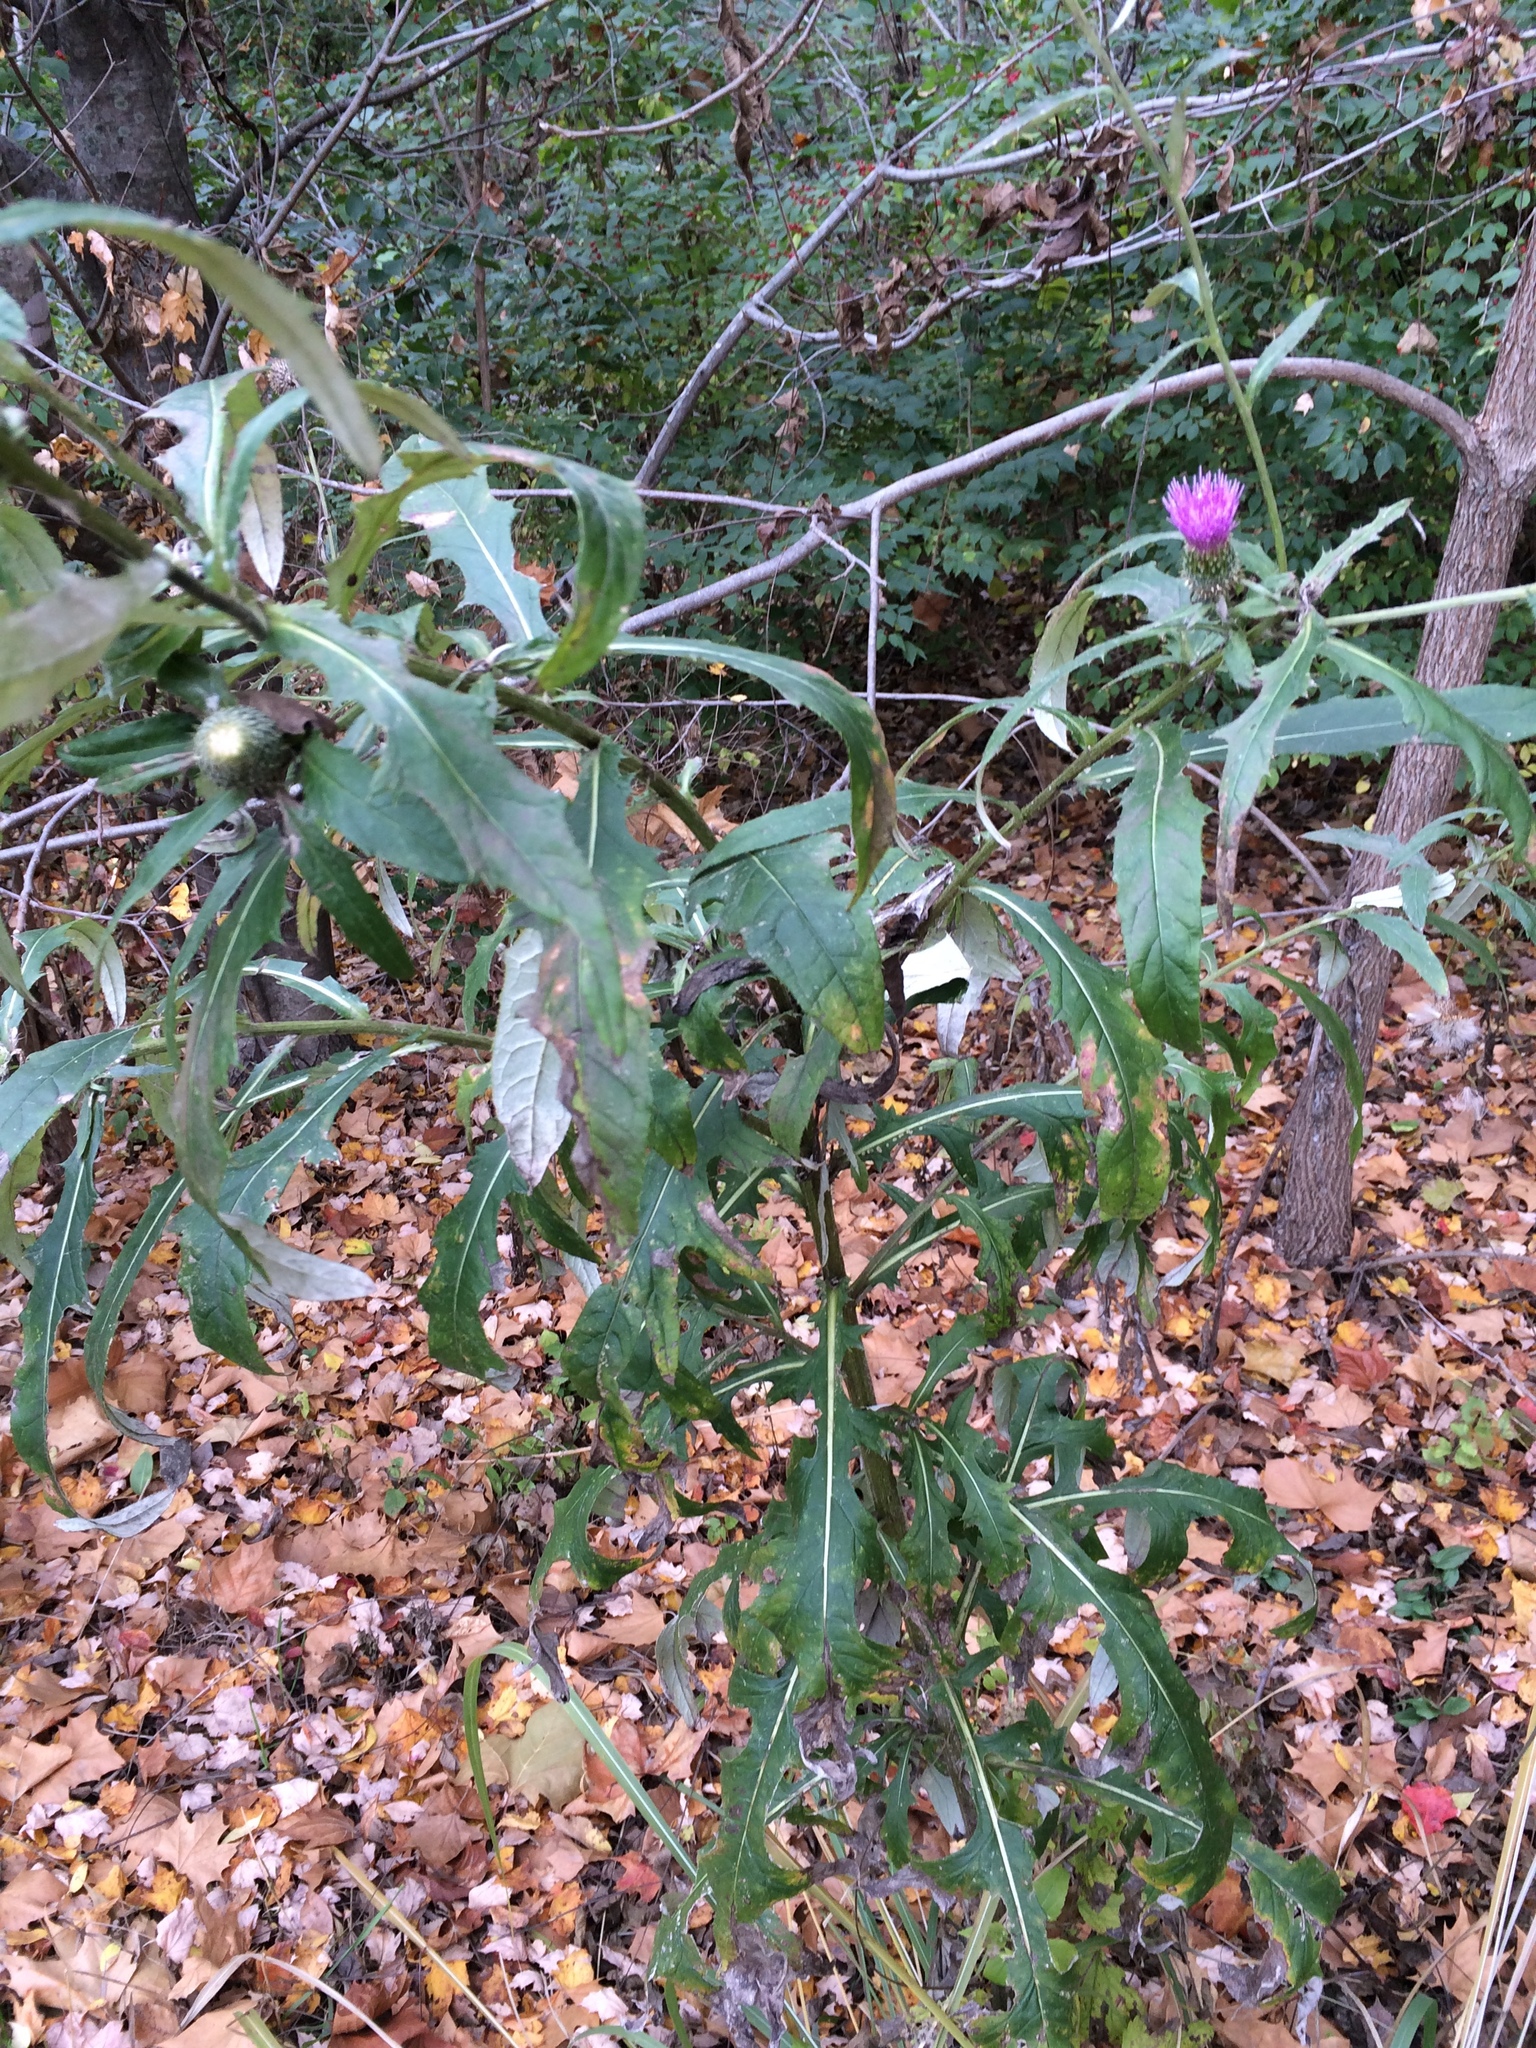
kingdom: Plantae
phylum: Tracheophyta
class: Magnoliopsida
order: Asterales
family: Asteraceae
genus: Cirsium
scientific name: Cirsium altissimum
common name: Roadside thistle
